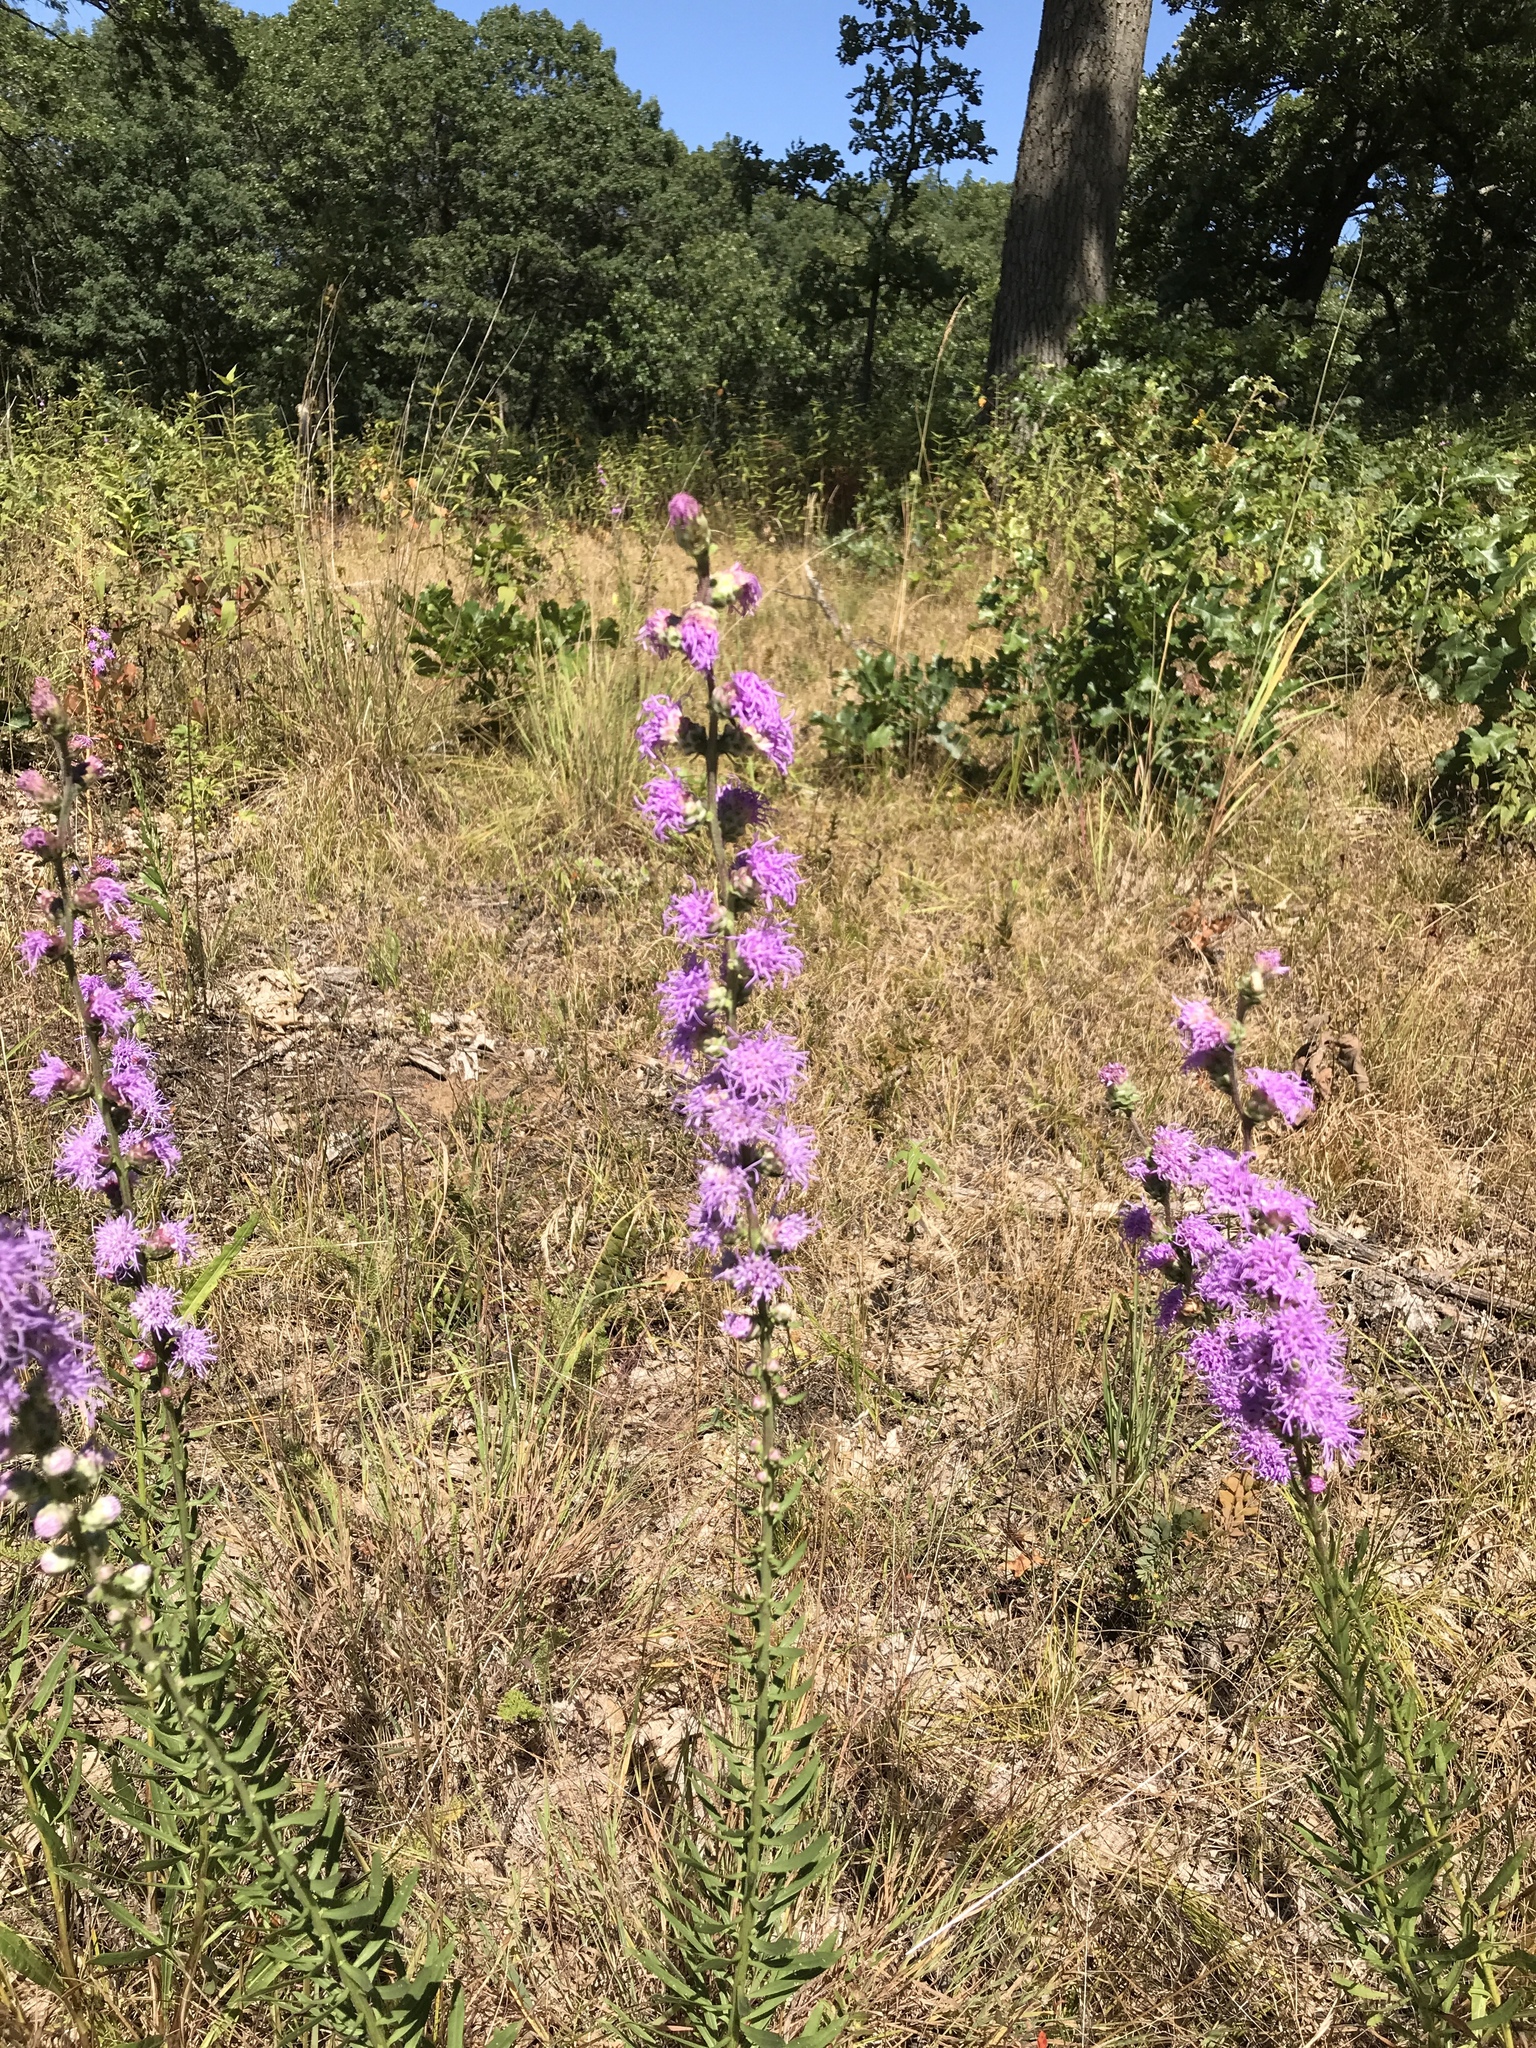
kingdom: Plantae
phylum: Tracheophyta
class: Magnoliopsida
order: Asterales
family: Asteraceae
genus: Liatris
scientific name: Liatris aspera
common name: Lacerate blazing-star
